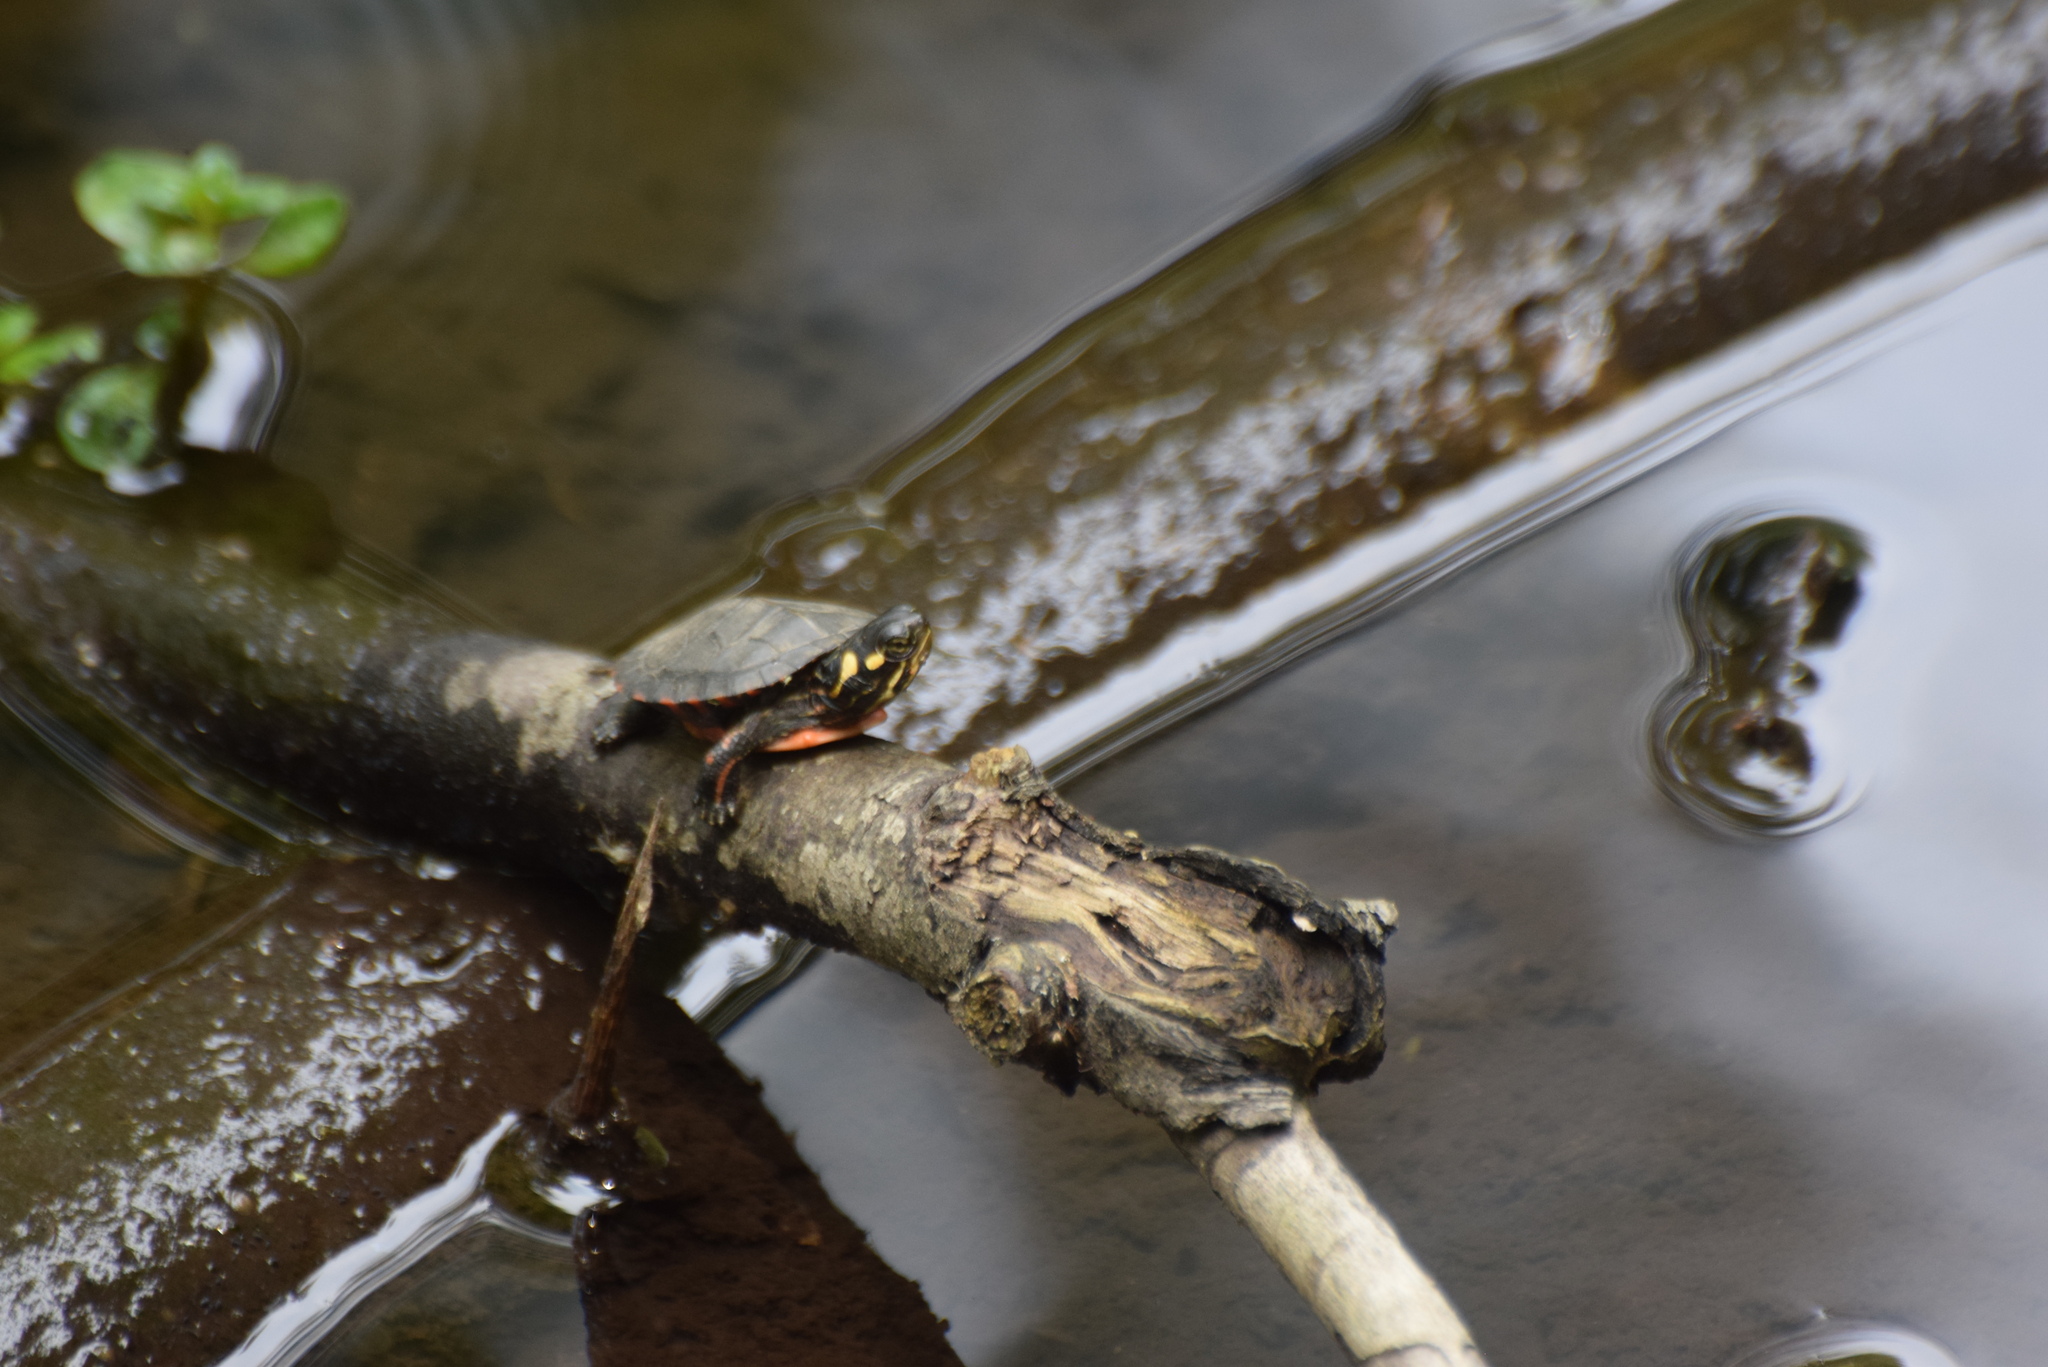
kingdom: Animalia
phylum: Chordata
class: Testudines
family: Emydidae
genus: Chrysemys
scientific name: Chrysemys picta
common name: Painted turtle
